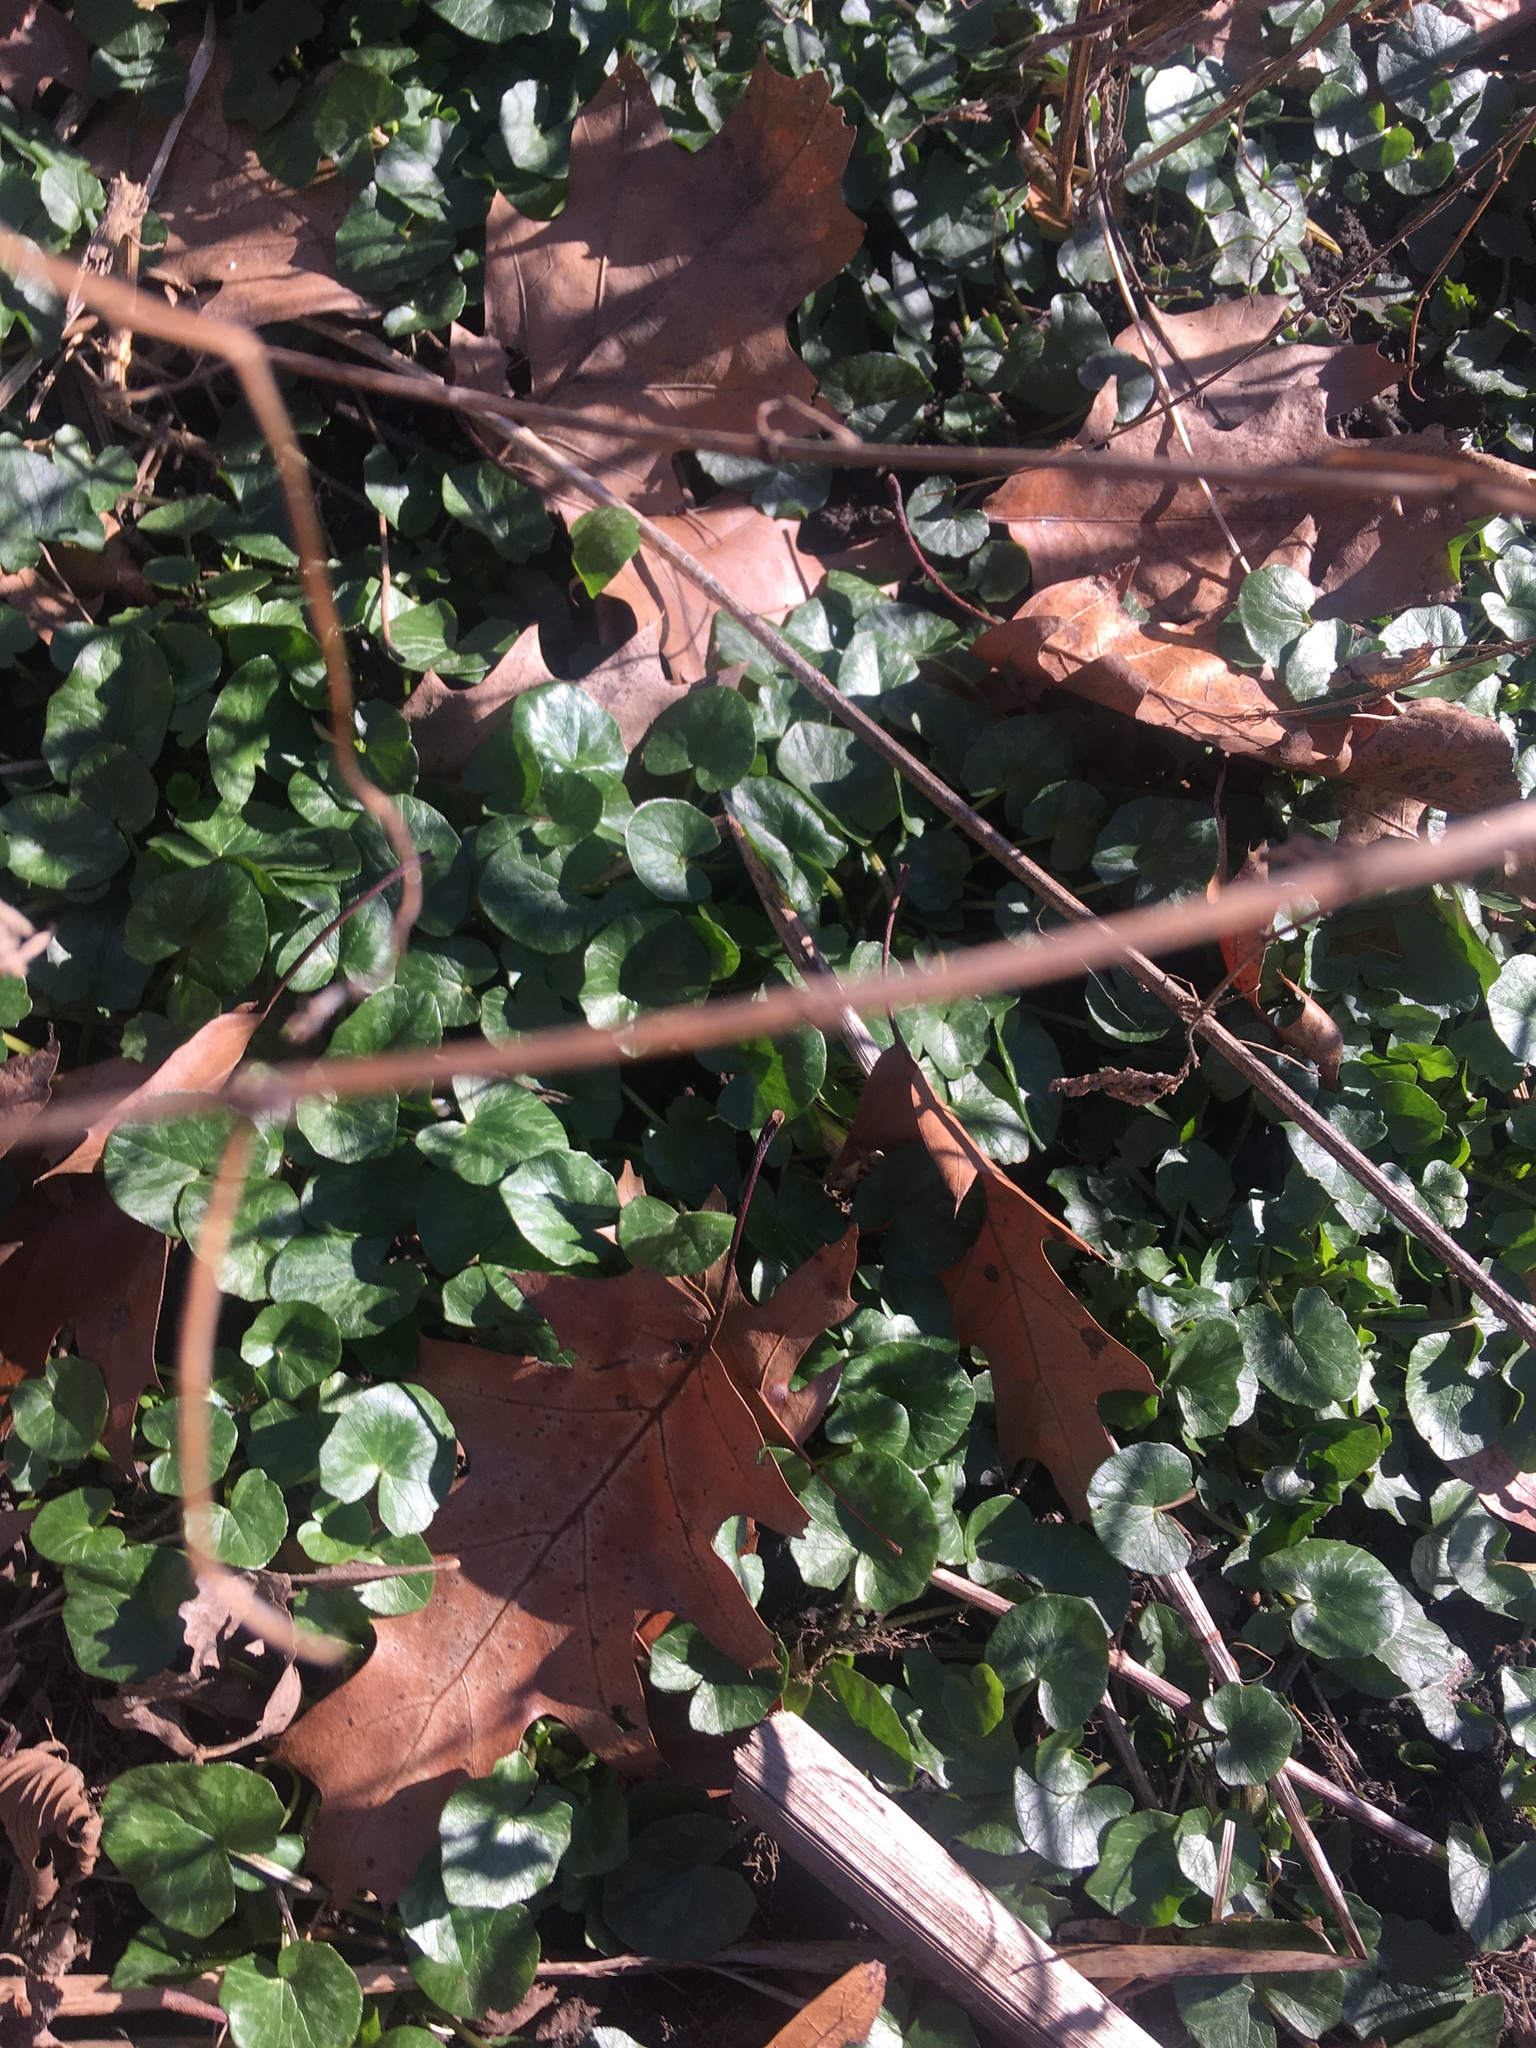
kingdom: Plantae
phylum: Tracheophyta
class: Magnoliopsida
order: Ranunculales
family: Ranunculaceae
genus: Ficaria
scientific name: Ficaria verna
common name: Lesser celandine
